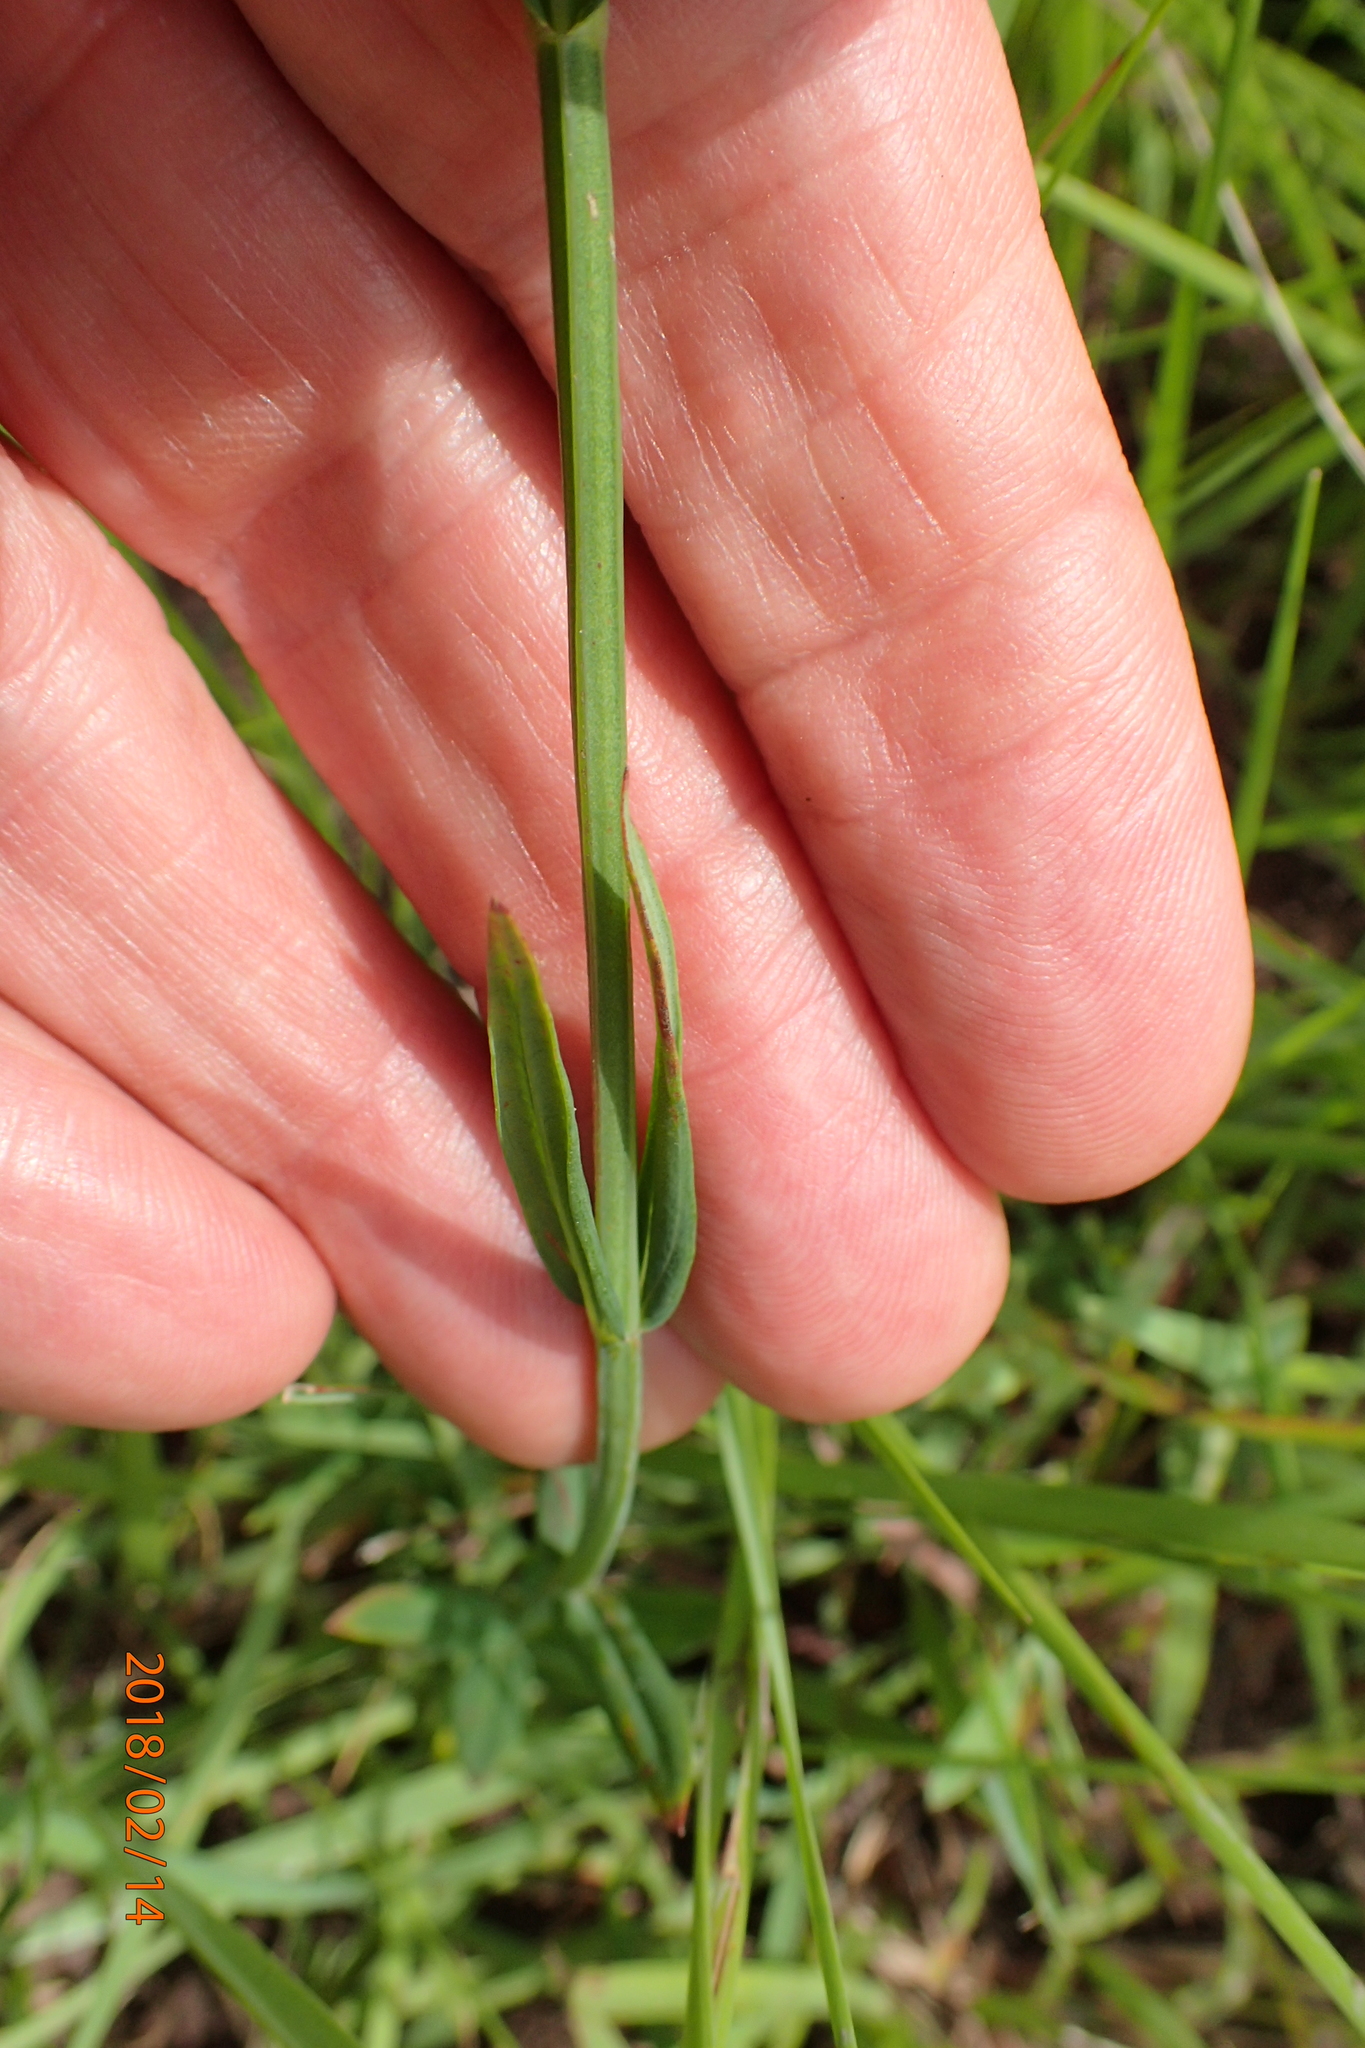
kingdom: Plantae
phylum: Tracheophyta
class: Magnoliopsida
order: Malpighiales
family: Hypericaceae
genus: Hypericum
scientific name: Hypericum lalandii
